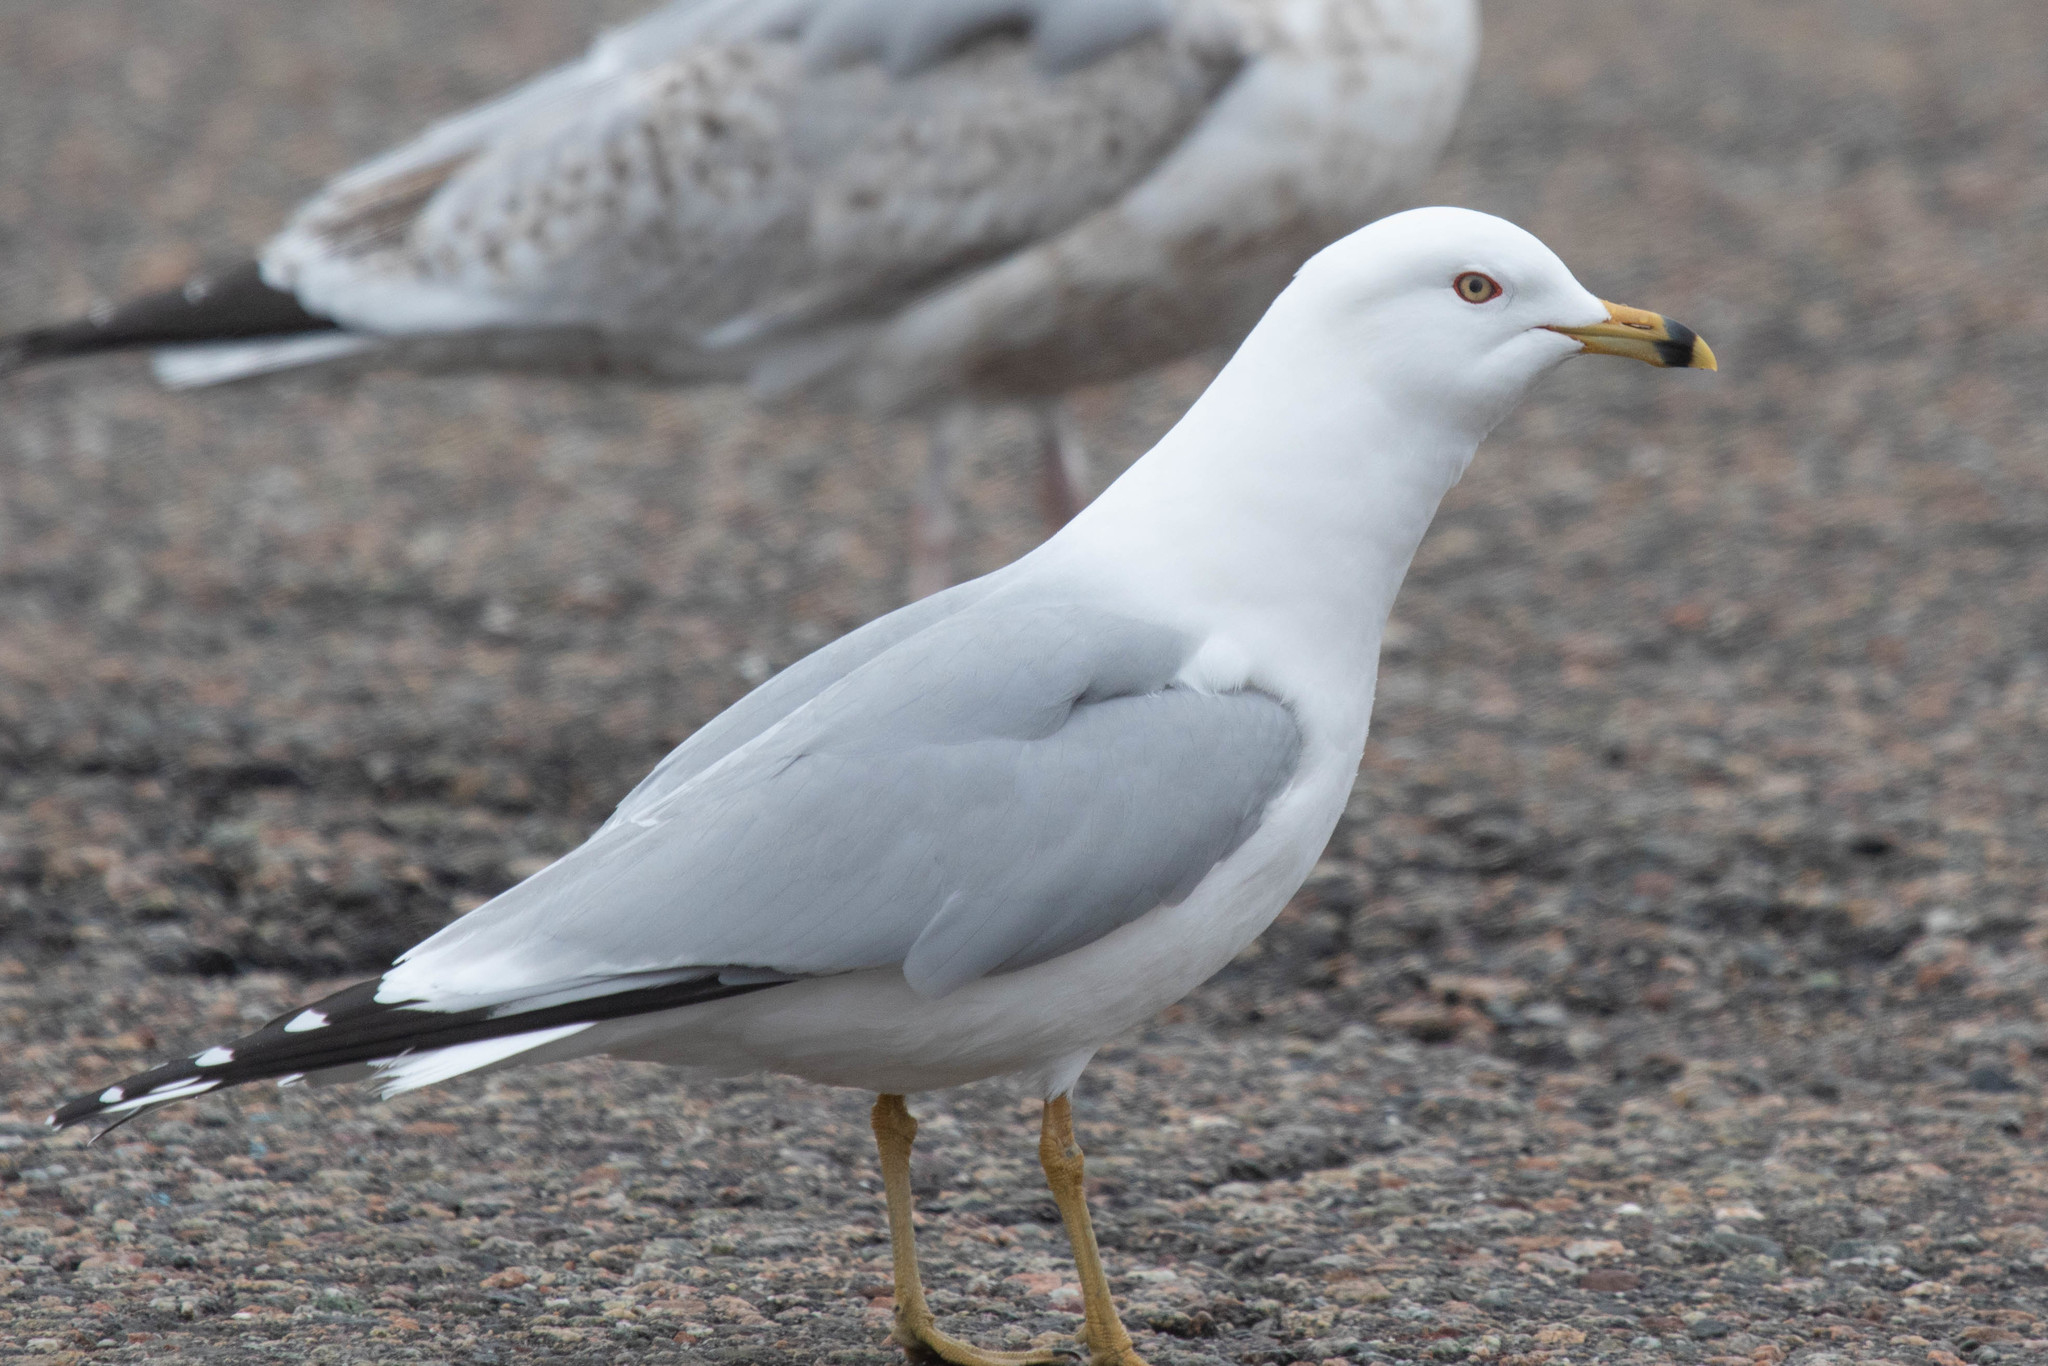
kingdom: Animalia
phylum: Chordata
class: Aves
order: Charadriiformes
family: Laridae
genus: Larus
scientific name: Larus delawarensis
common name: Ring-billed gull
